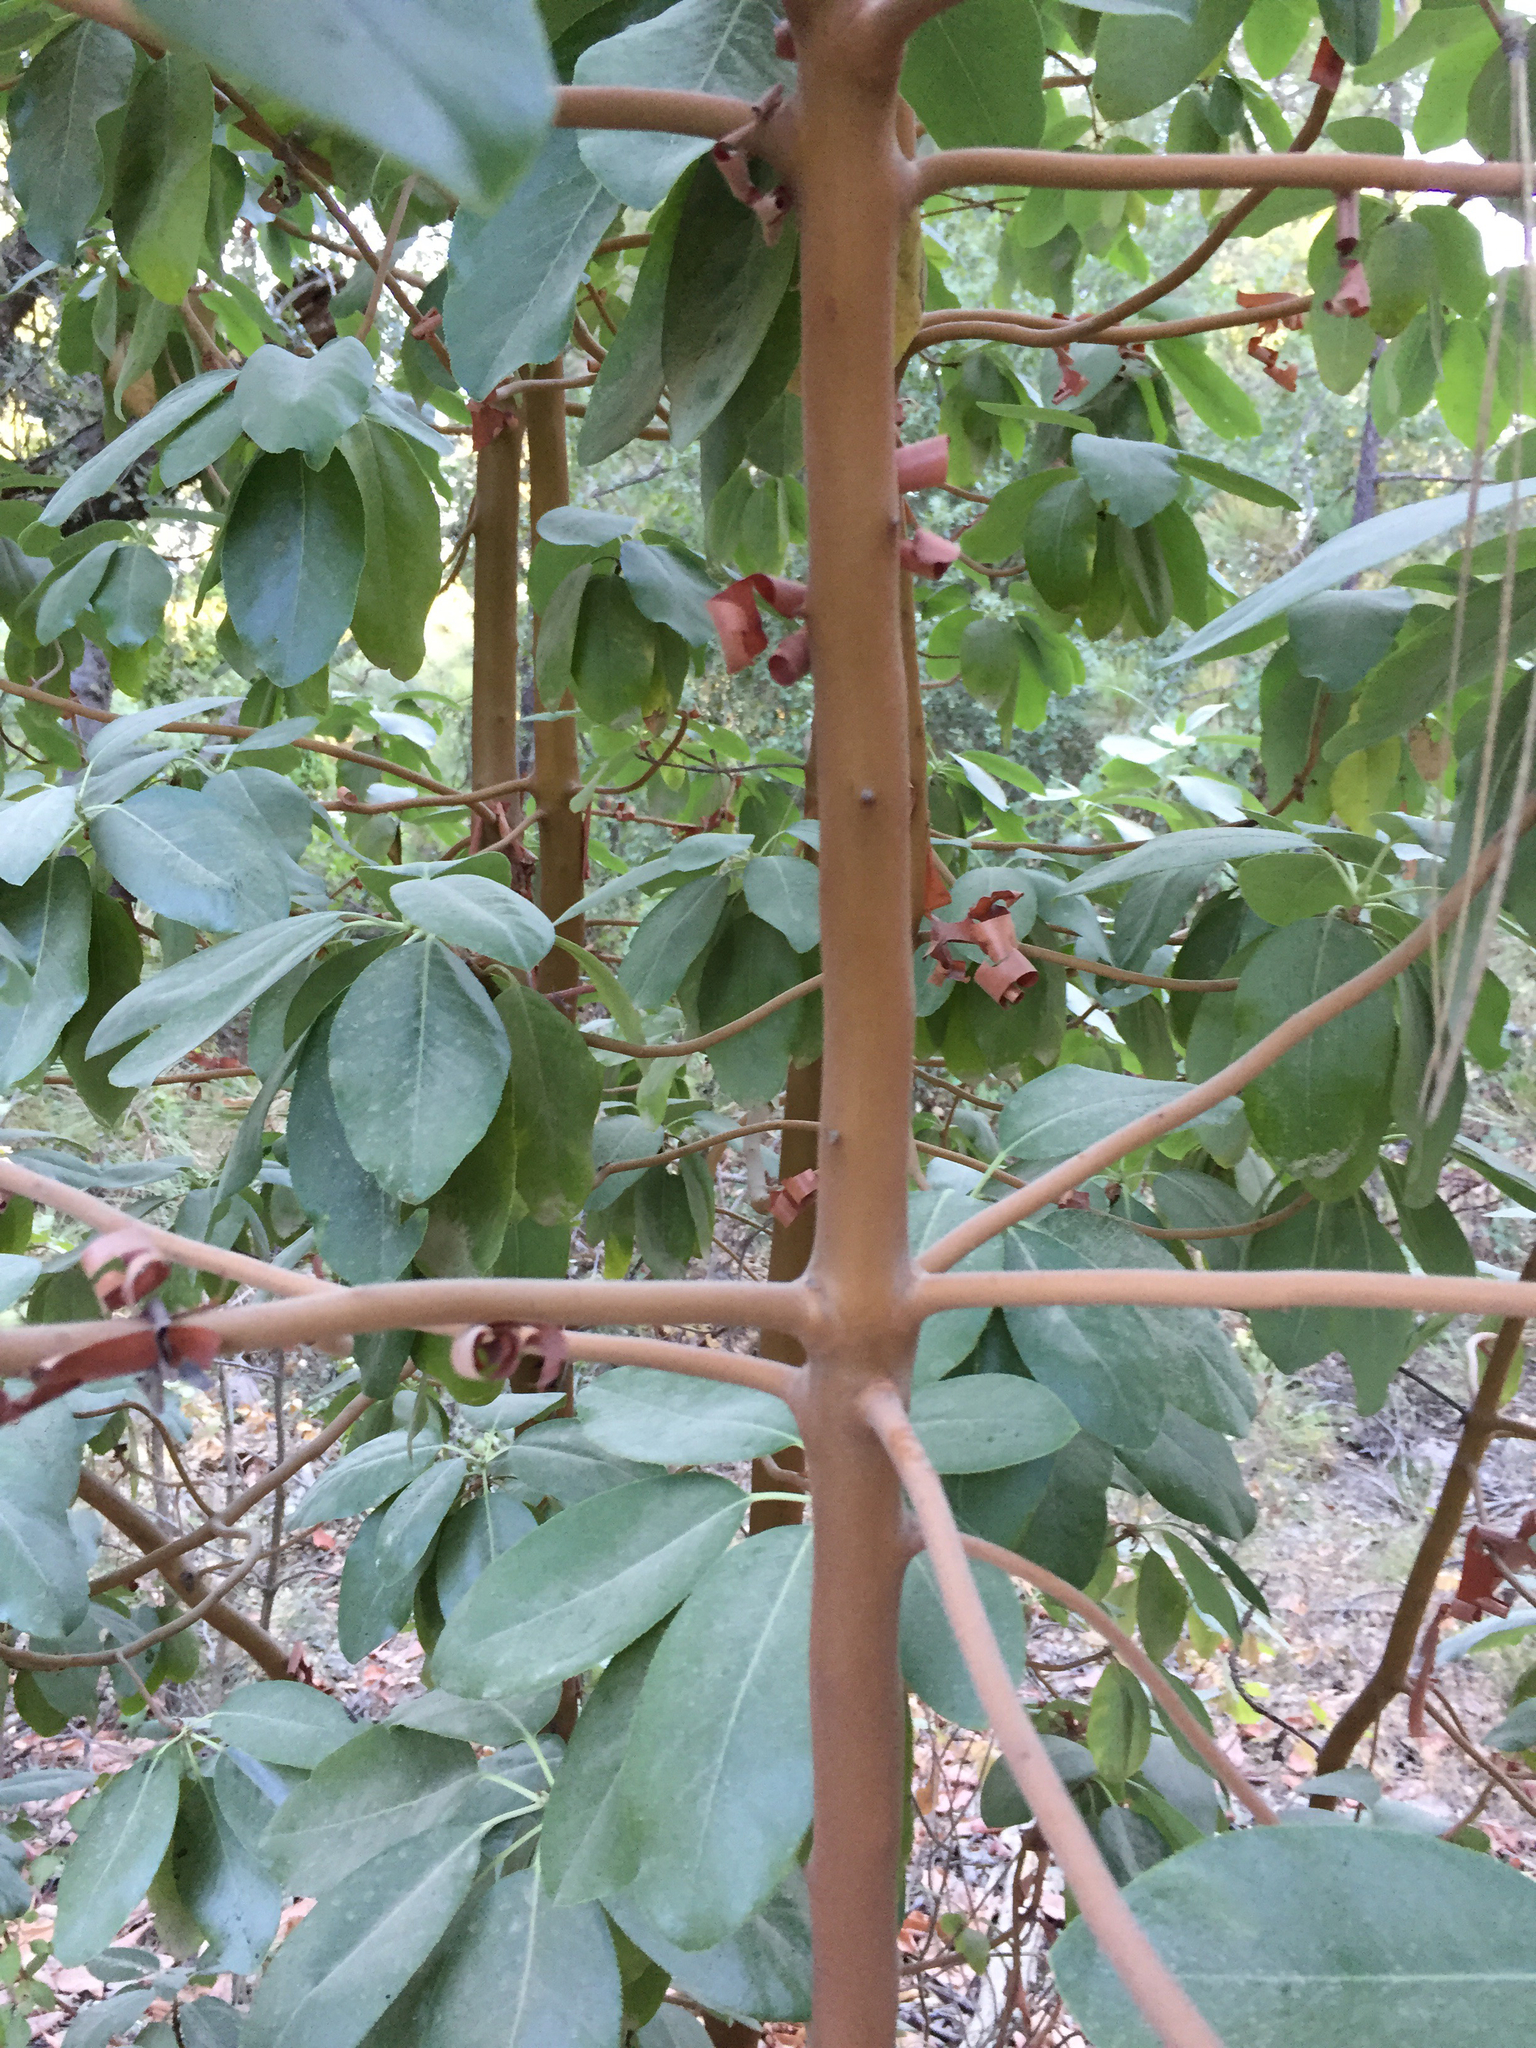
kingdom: Plantae
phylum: Tracheophyta
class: Magnoliopsida
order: Ericales
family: Ericaceae
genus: Arbutus
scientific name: Arbutus menziesii
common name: Pacific madrone
